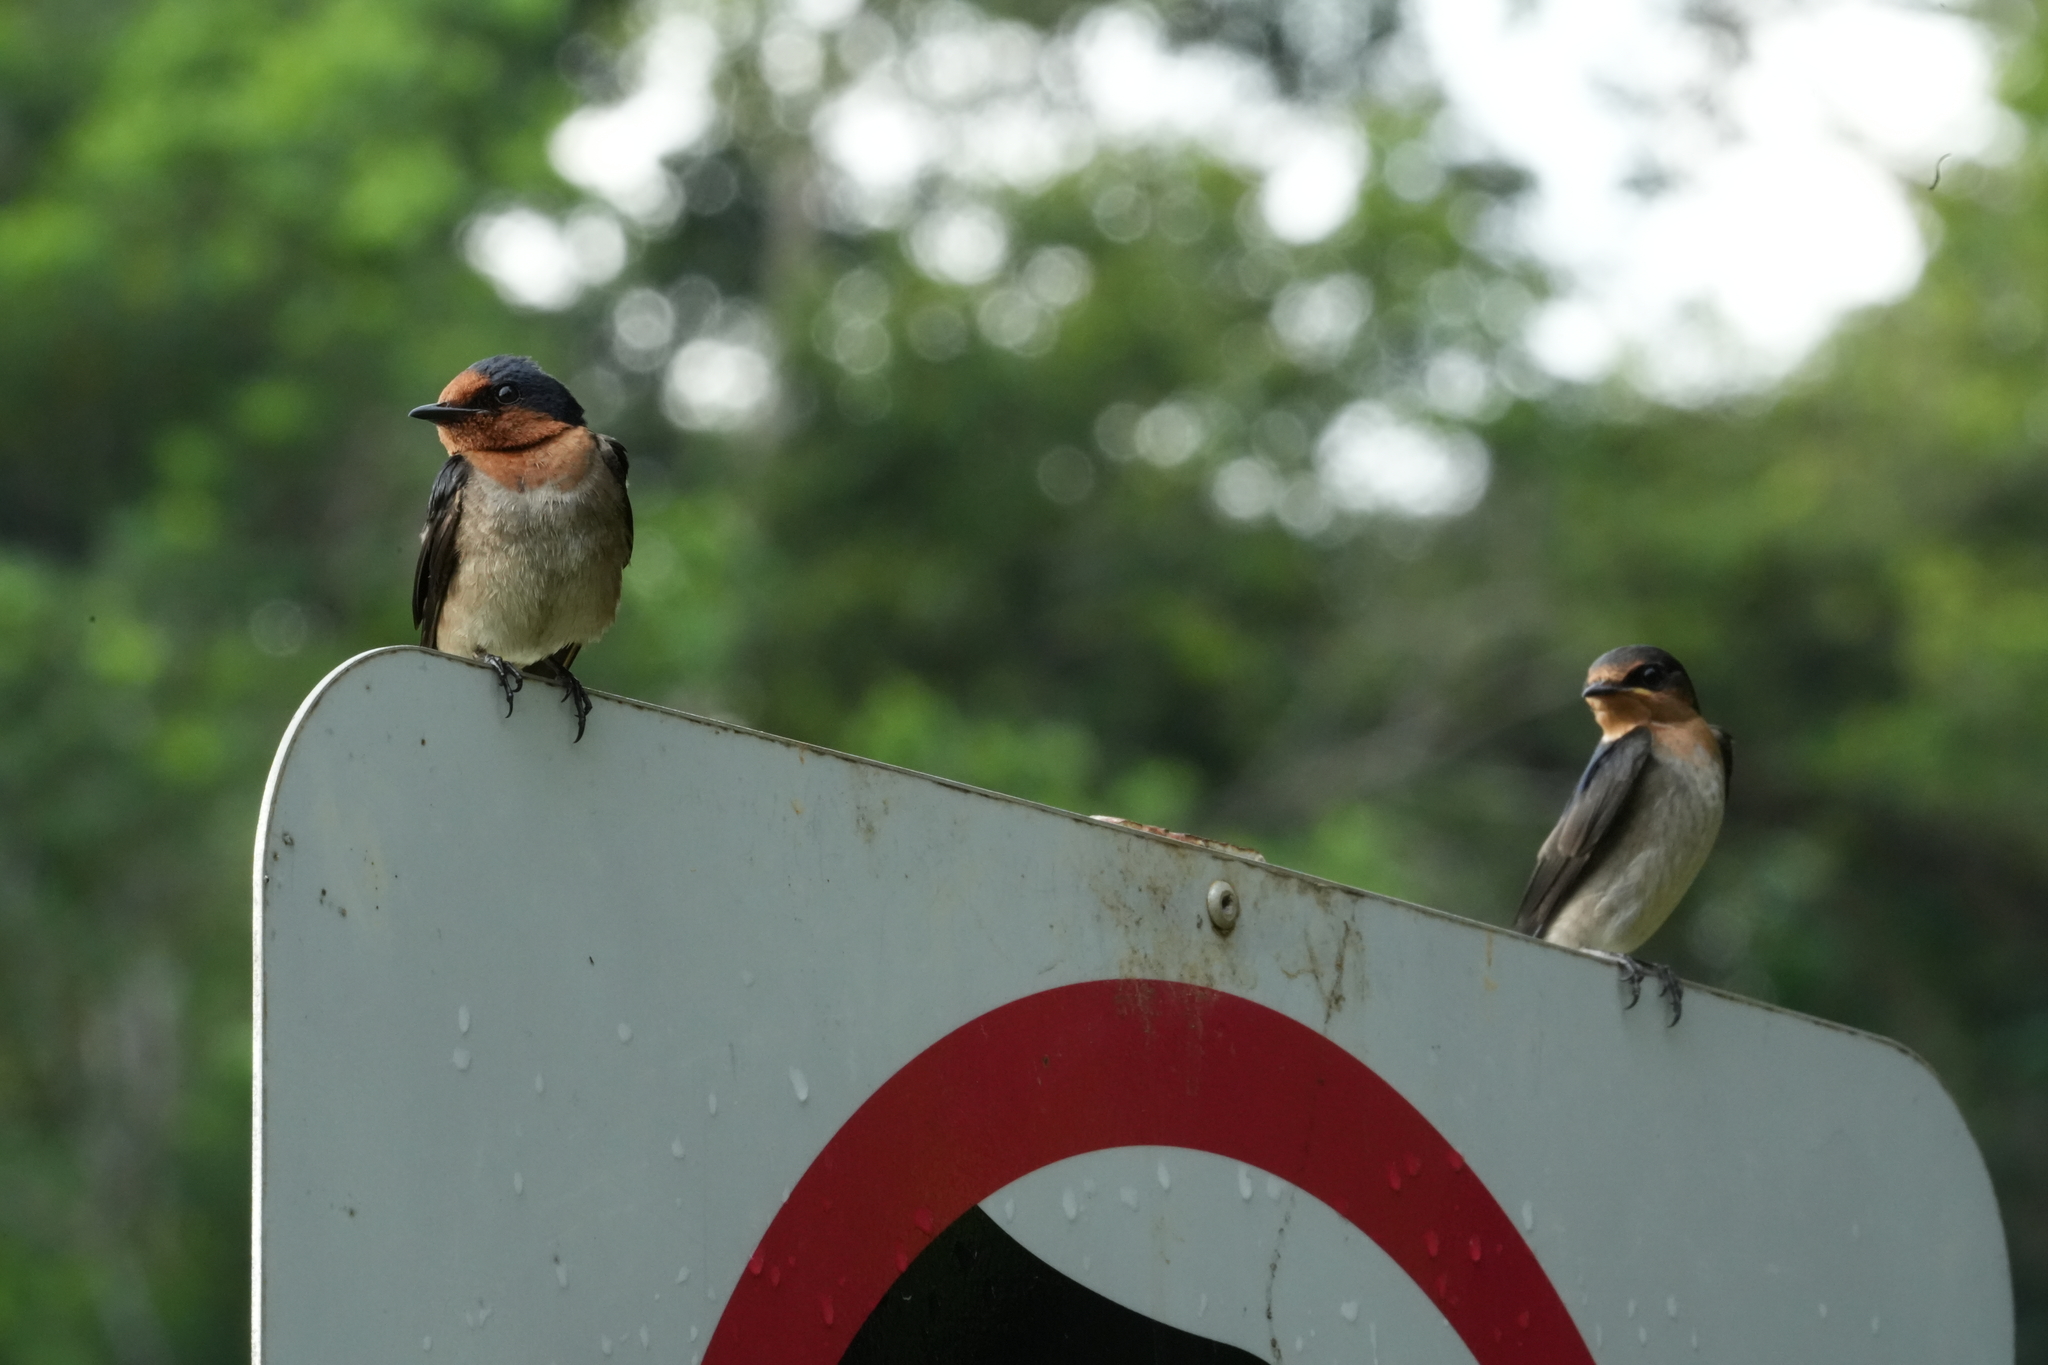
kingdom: Animalia
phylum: Chordata
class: Aves
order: Passeriformes
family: Hirundinidae
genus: Hirundo
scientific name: Hirundo tahitica
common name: Pacific swallow
